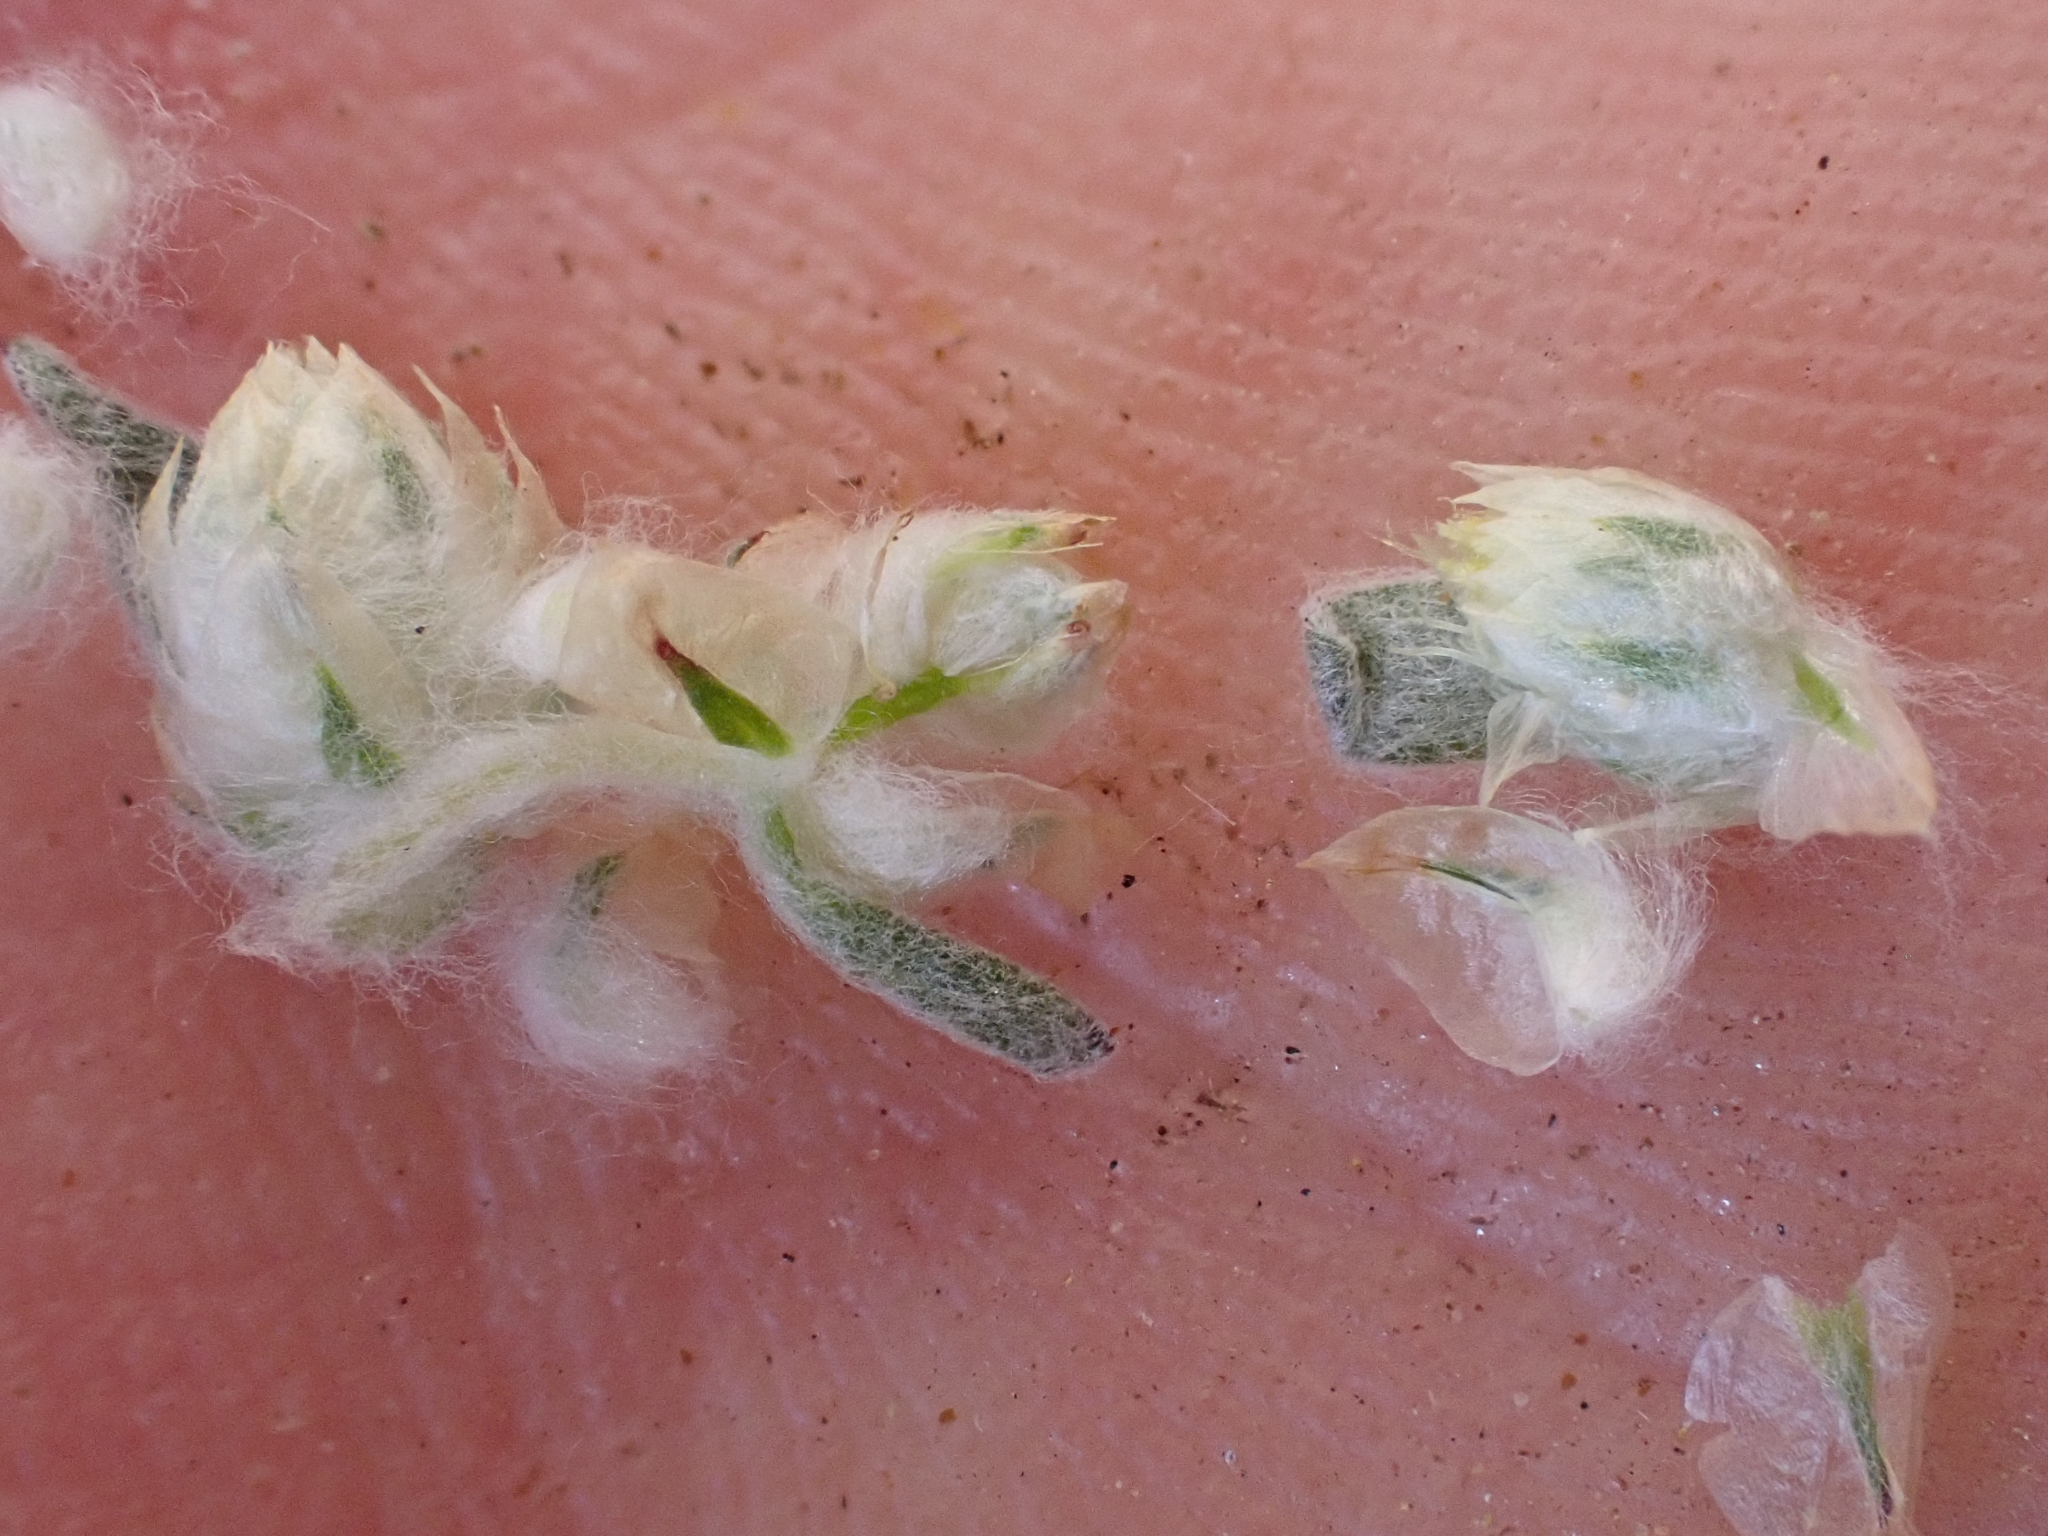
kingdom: Plantae
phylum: Tracheophyta
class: Magnoliopsida
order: Asterales
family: Asteraceae
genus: Stylocline
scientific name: Stylocline gnaphaloides
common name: Everlasting nest-straw
